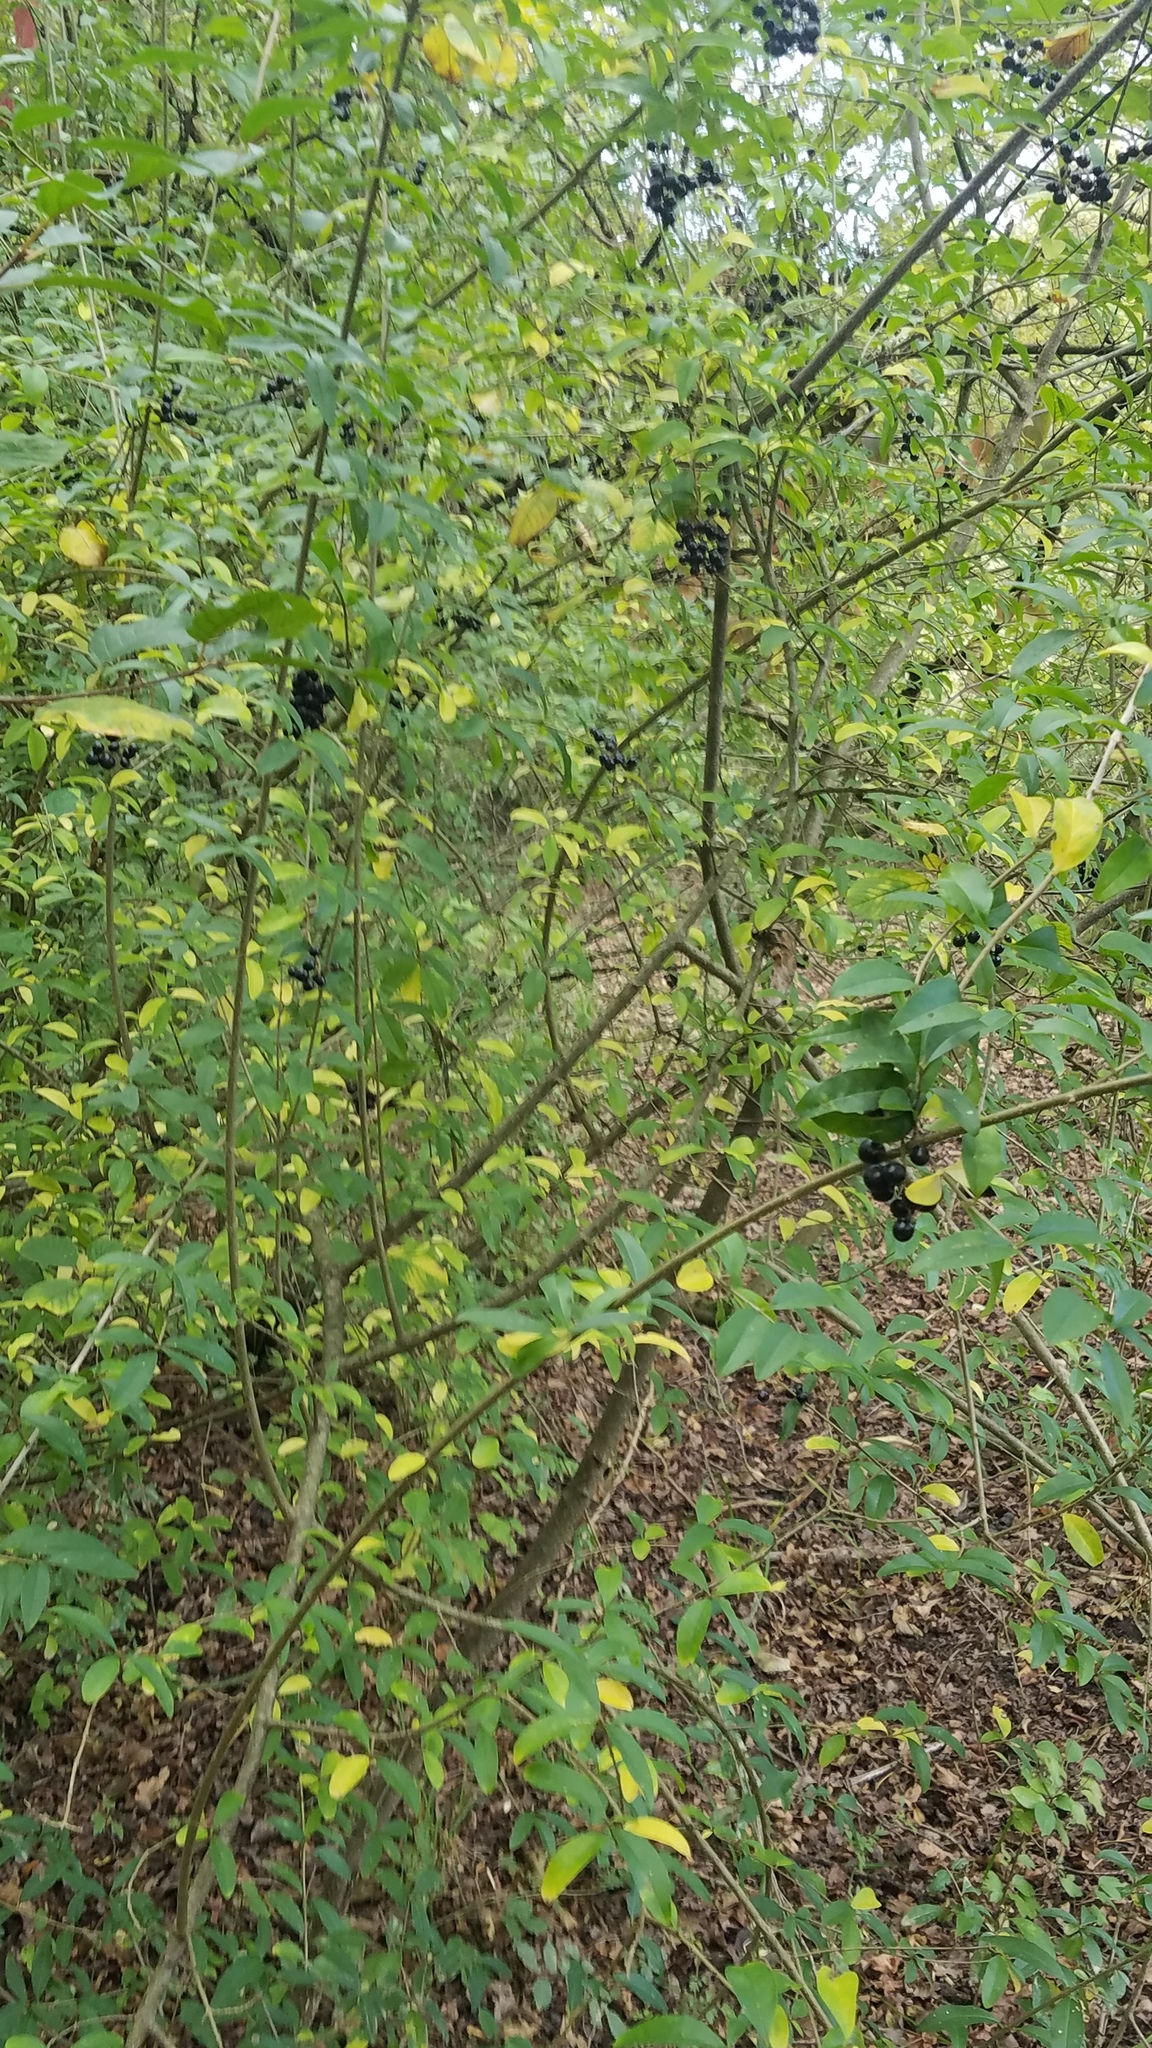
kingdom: Plantae
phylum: Tracheophyta
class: Magnoliopsida
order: Lamiales
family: Oleaceae
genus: Ligustrum
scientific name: Ligustrum vulgare
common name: Wild privet
